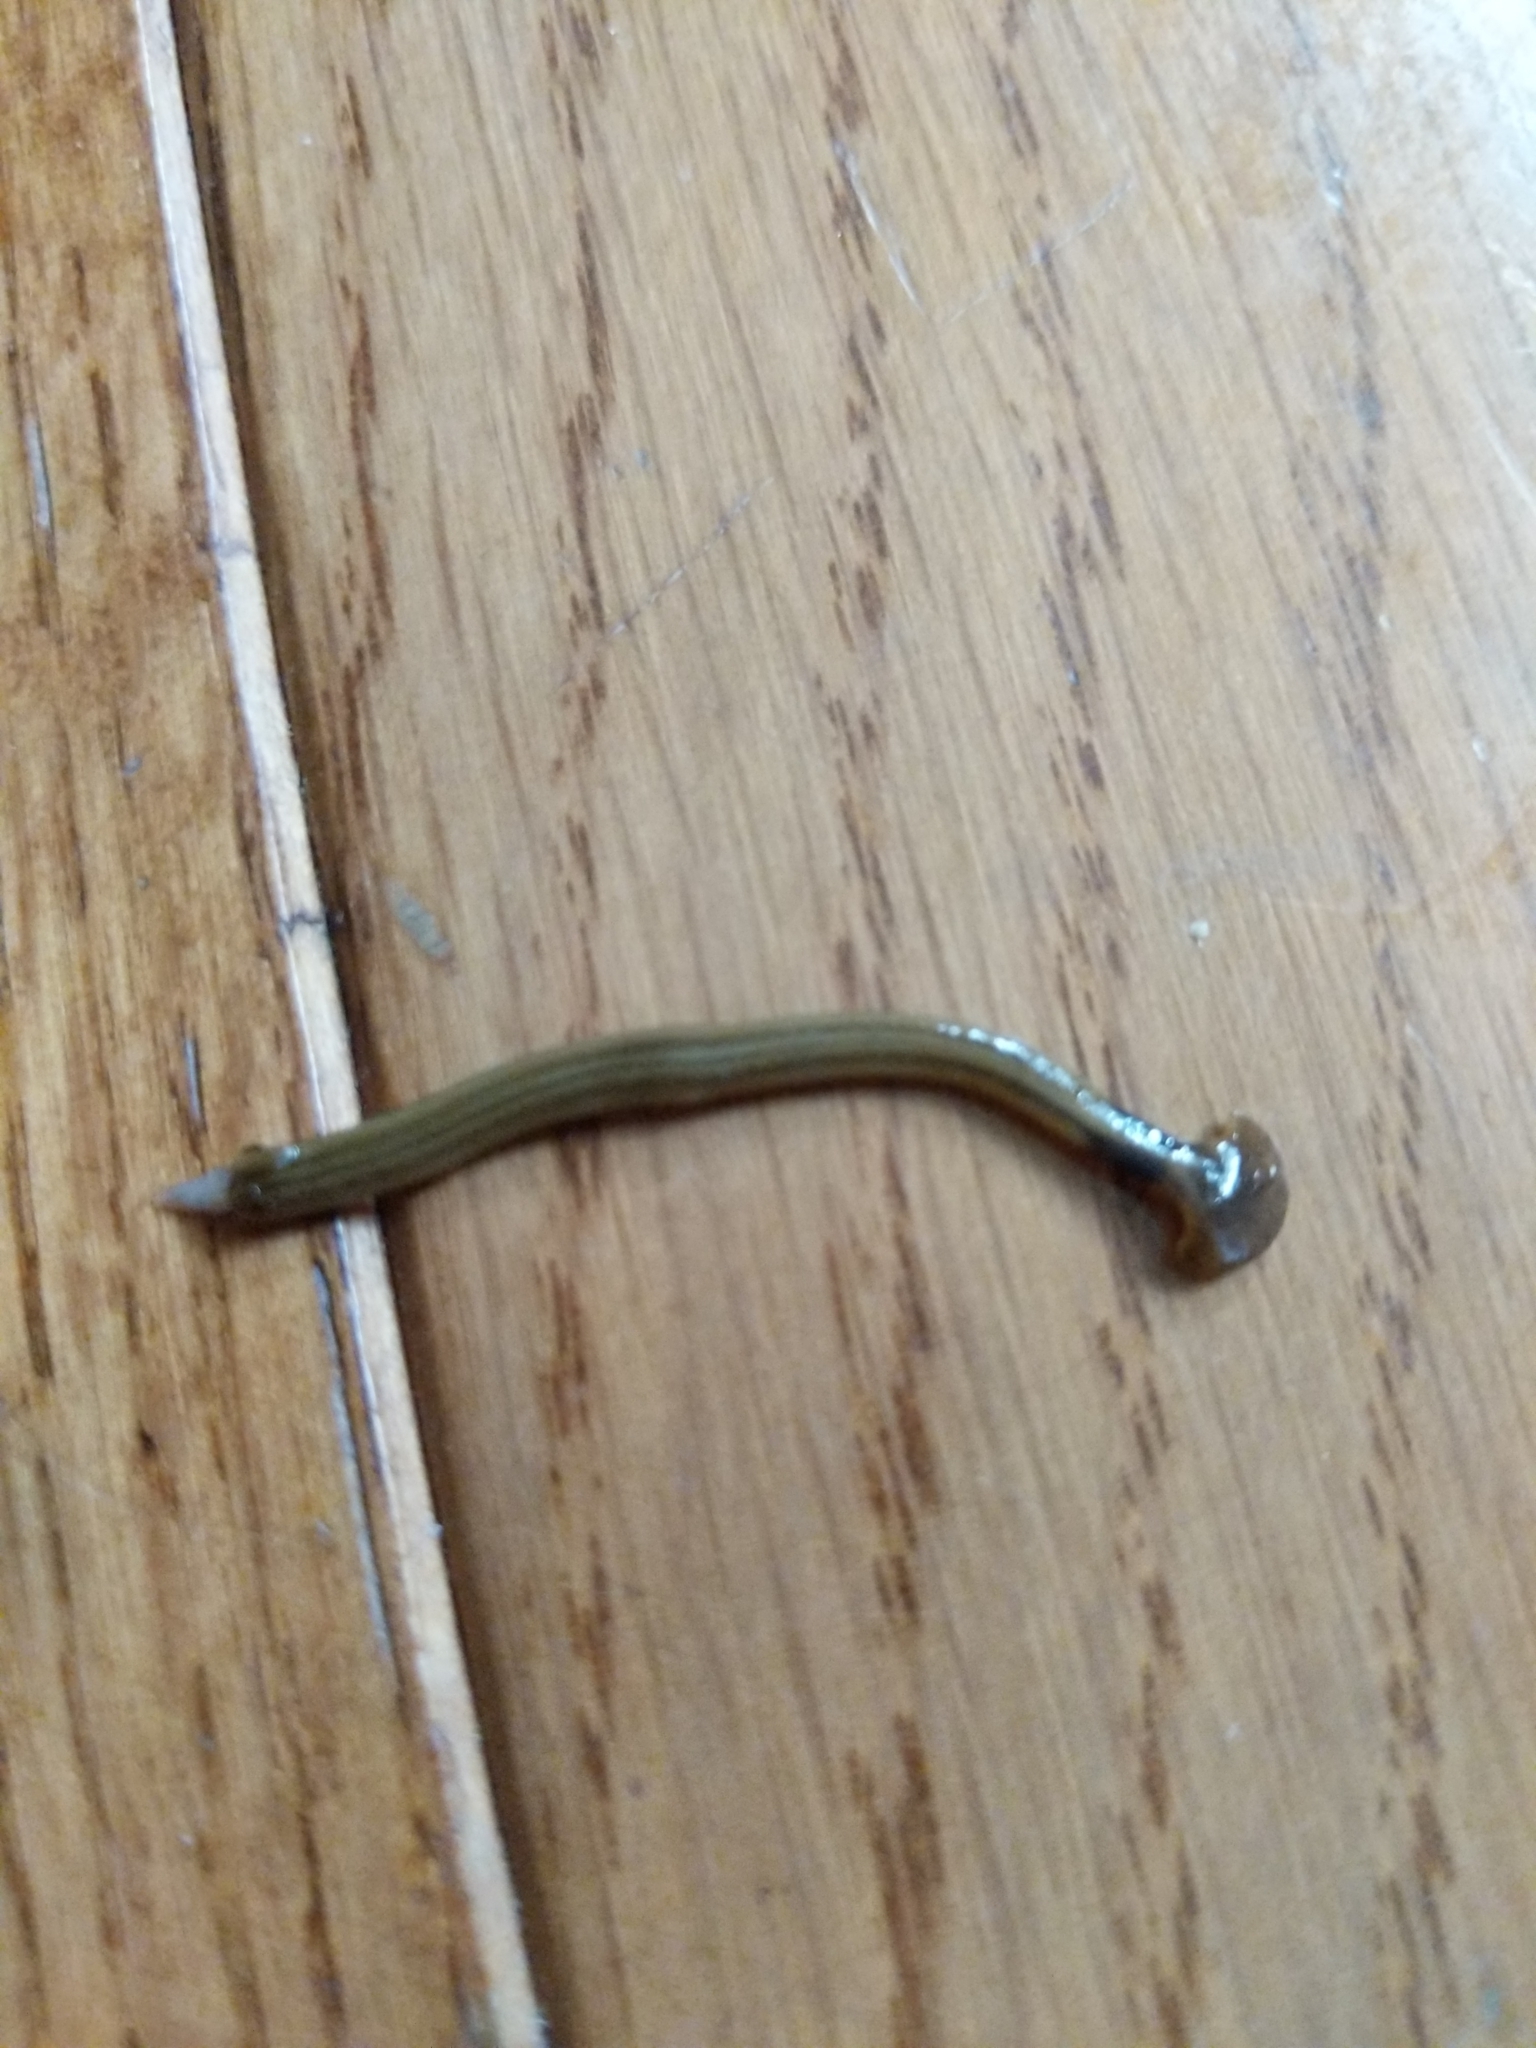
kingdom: Animalia
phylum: Platyhelminthes
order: Tricladida
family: Geoplanidae
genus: Bipalium
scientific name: Bipalium kewense
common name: Hammerhead flatworm
